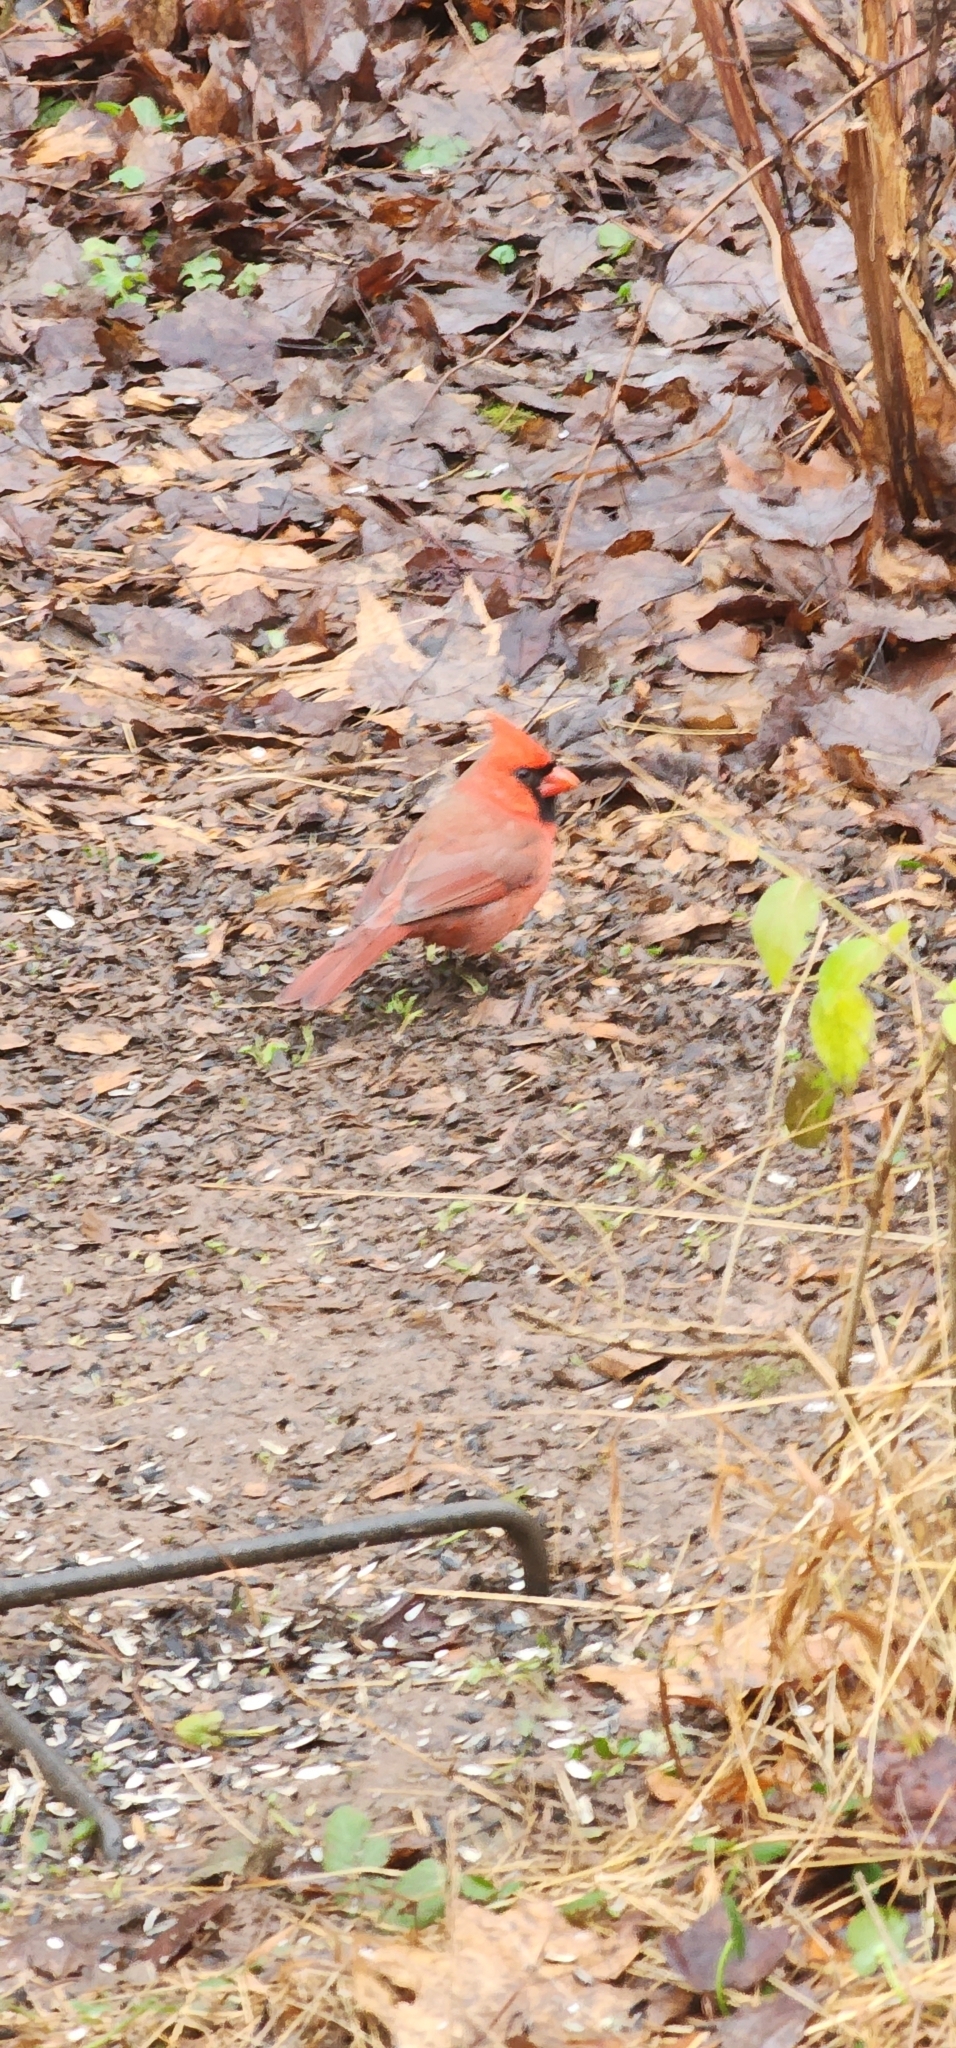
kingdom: Animalia
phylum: Chordata
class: Aves
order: Passeriformes
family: Cardinalidae
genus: Cardinalis
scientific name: Cardinalis cardinalis
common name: Northern cardinal
